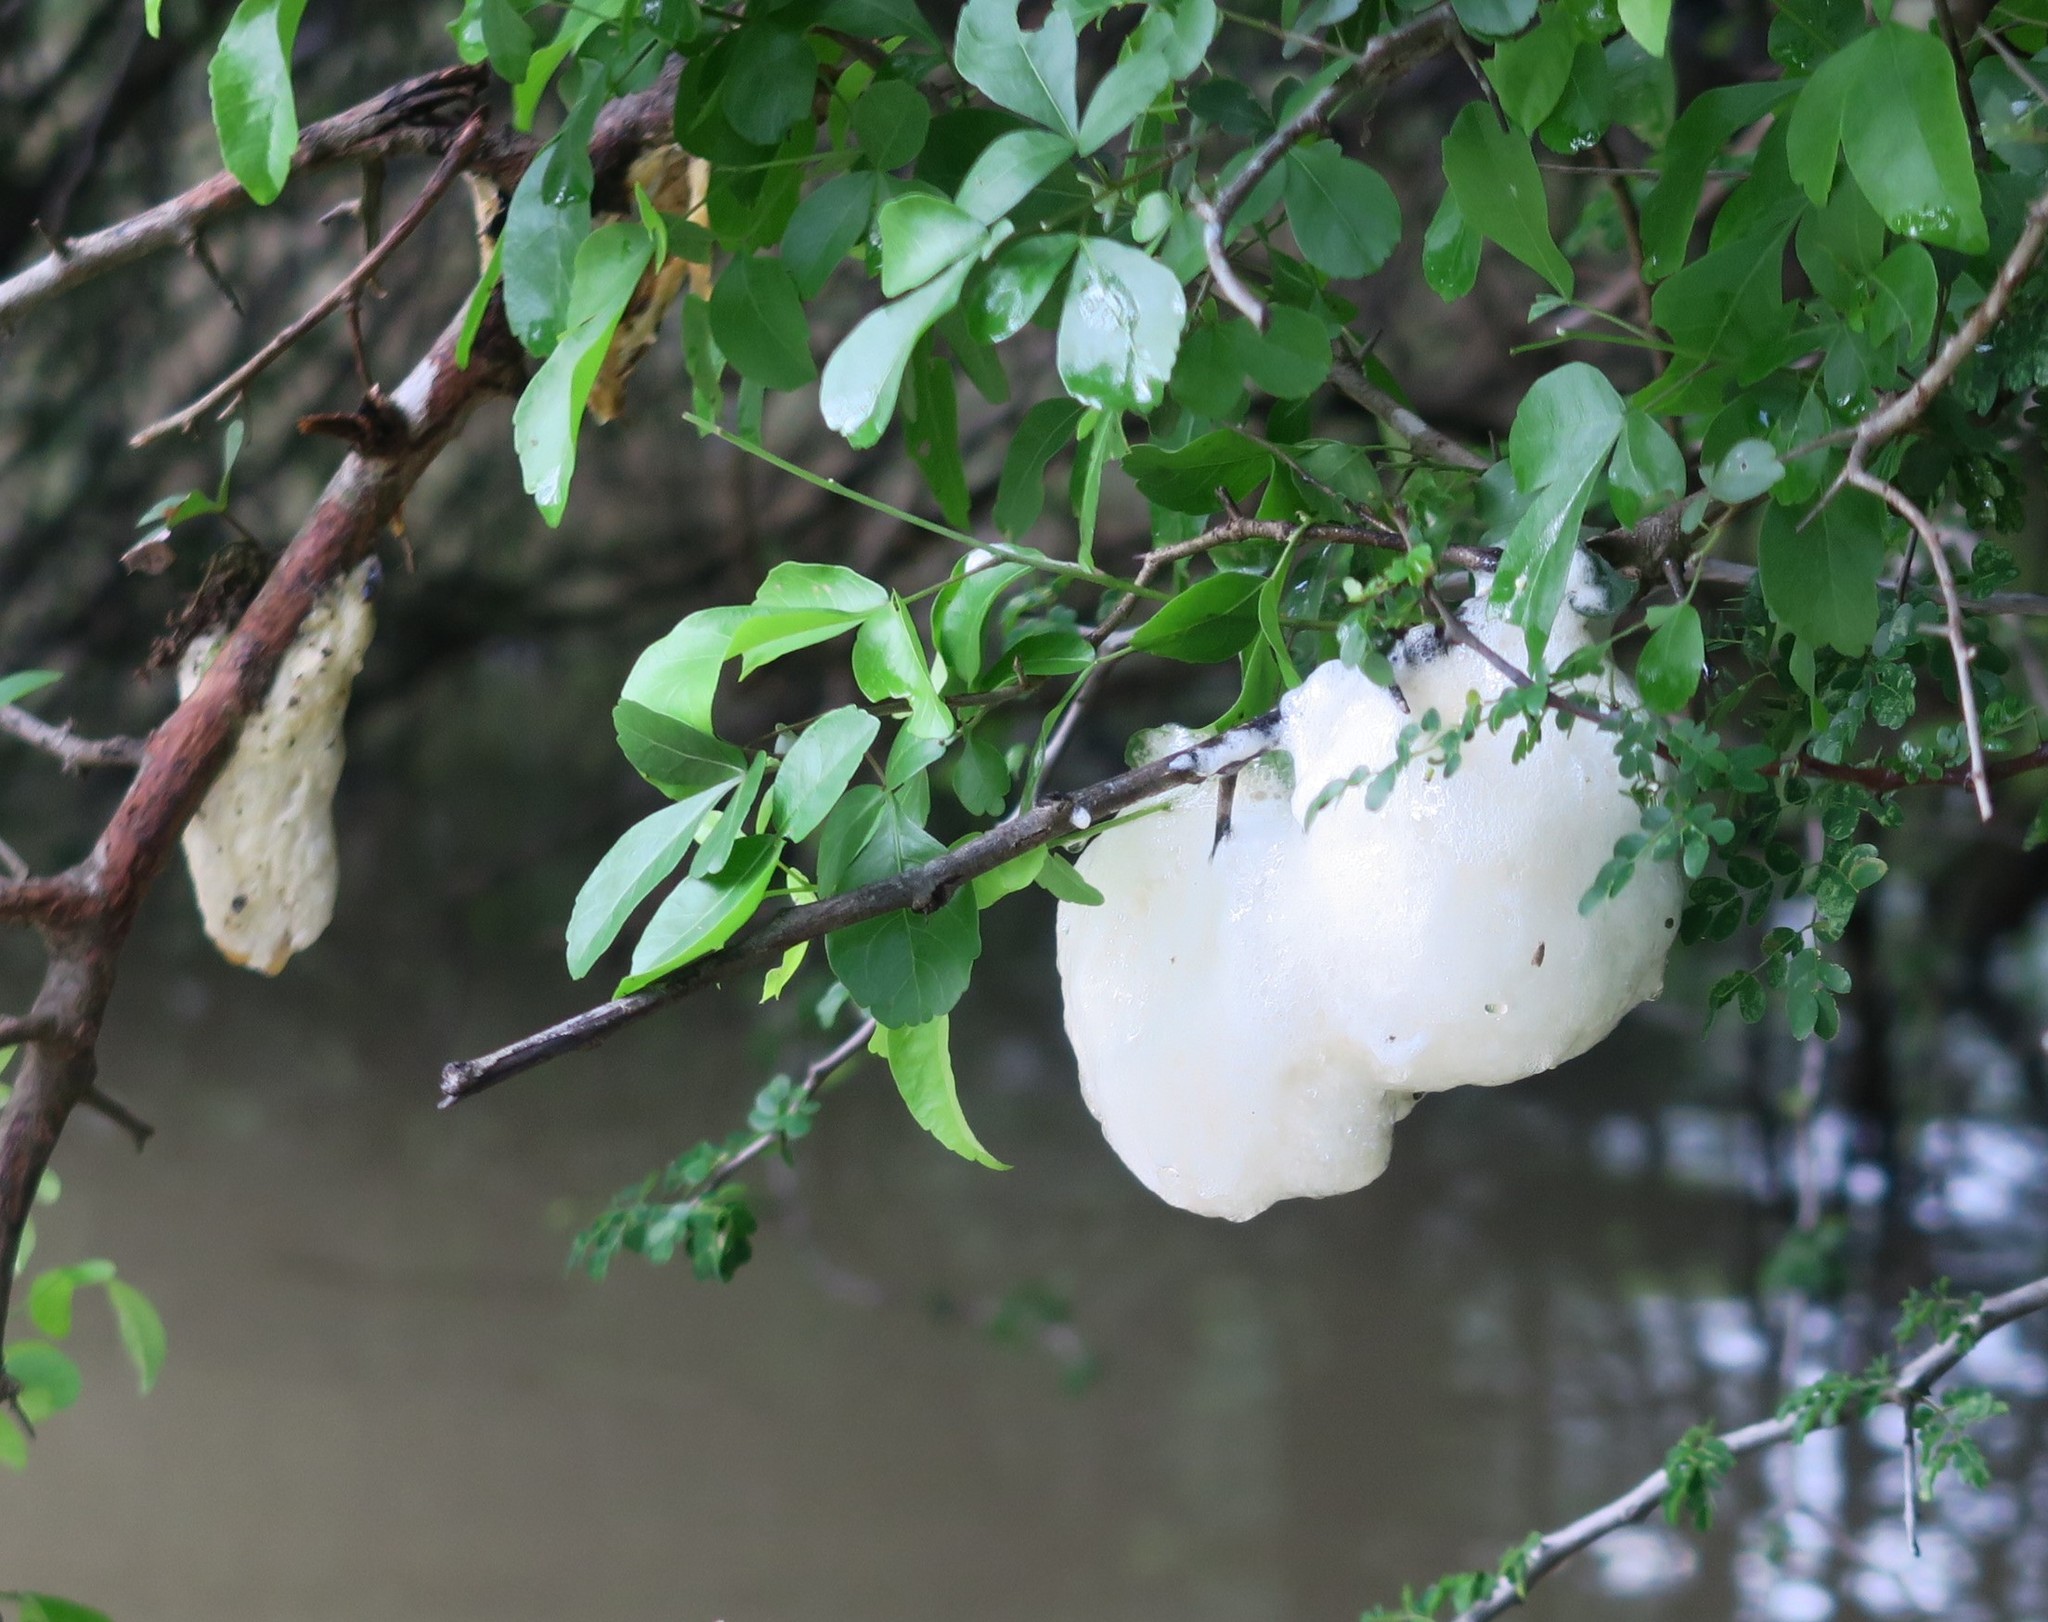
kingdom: Animalia
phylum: Chordata
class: Amphibia
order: Anura
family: Rhacophoridae
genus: Chiromantis
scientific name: Chiromantis xerampelina
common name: African gray treefrog
